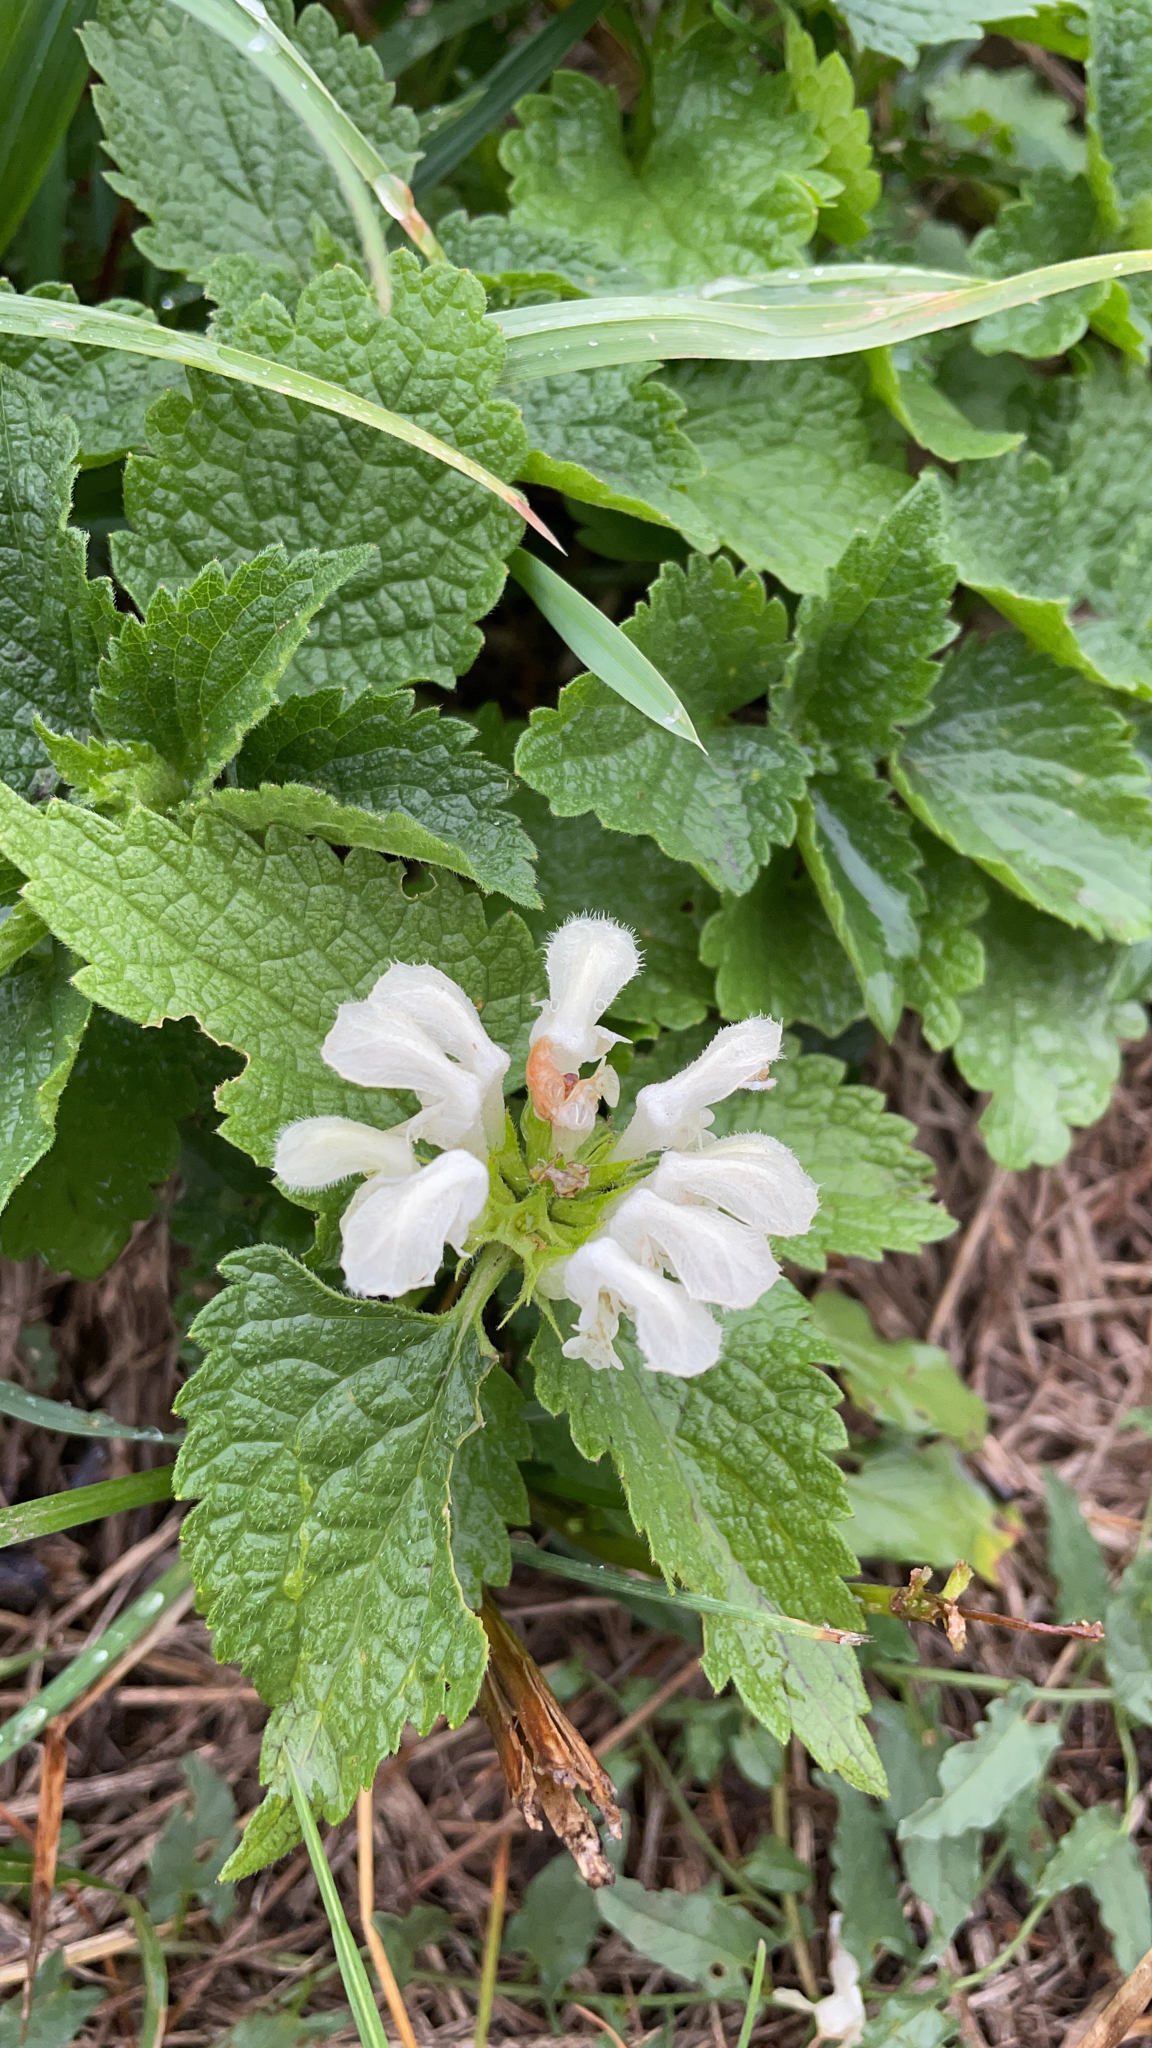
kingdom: Plantae
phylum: Tracheophyta
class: Magnoliopsida
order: Lamiales
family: Lamiaceae
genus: Lamium
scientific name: Lamium album
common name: White dead-nettle
